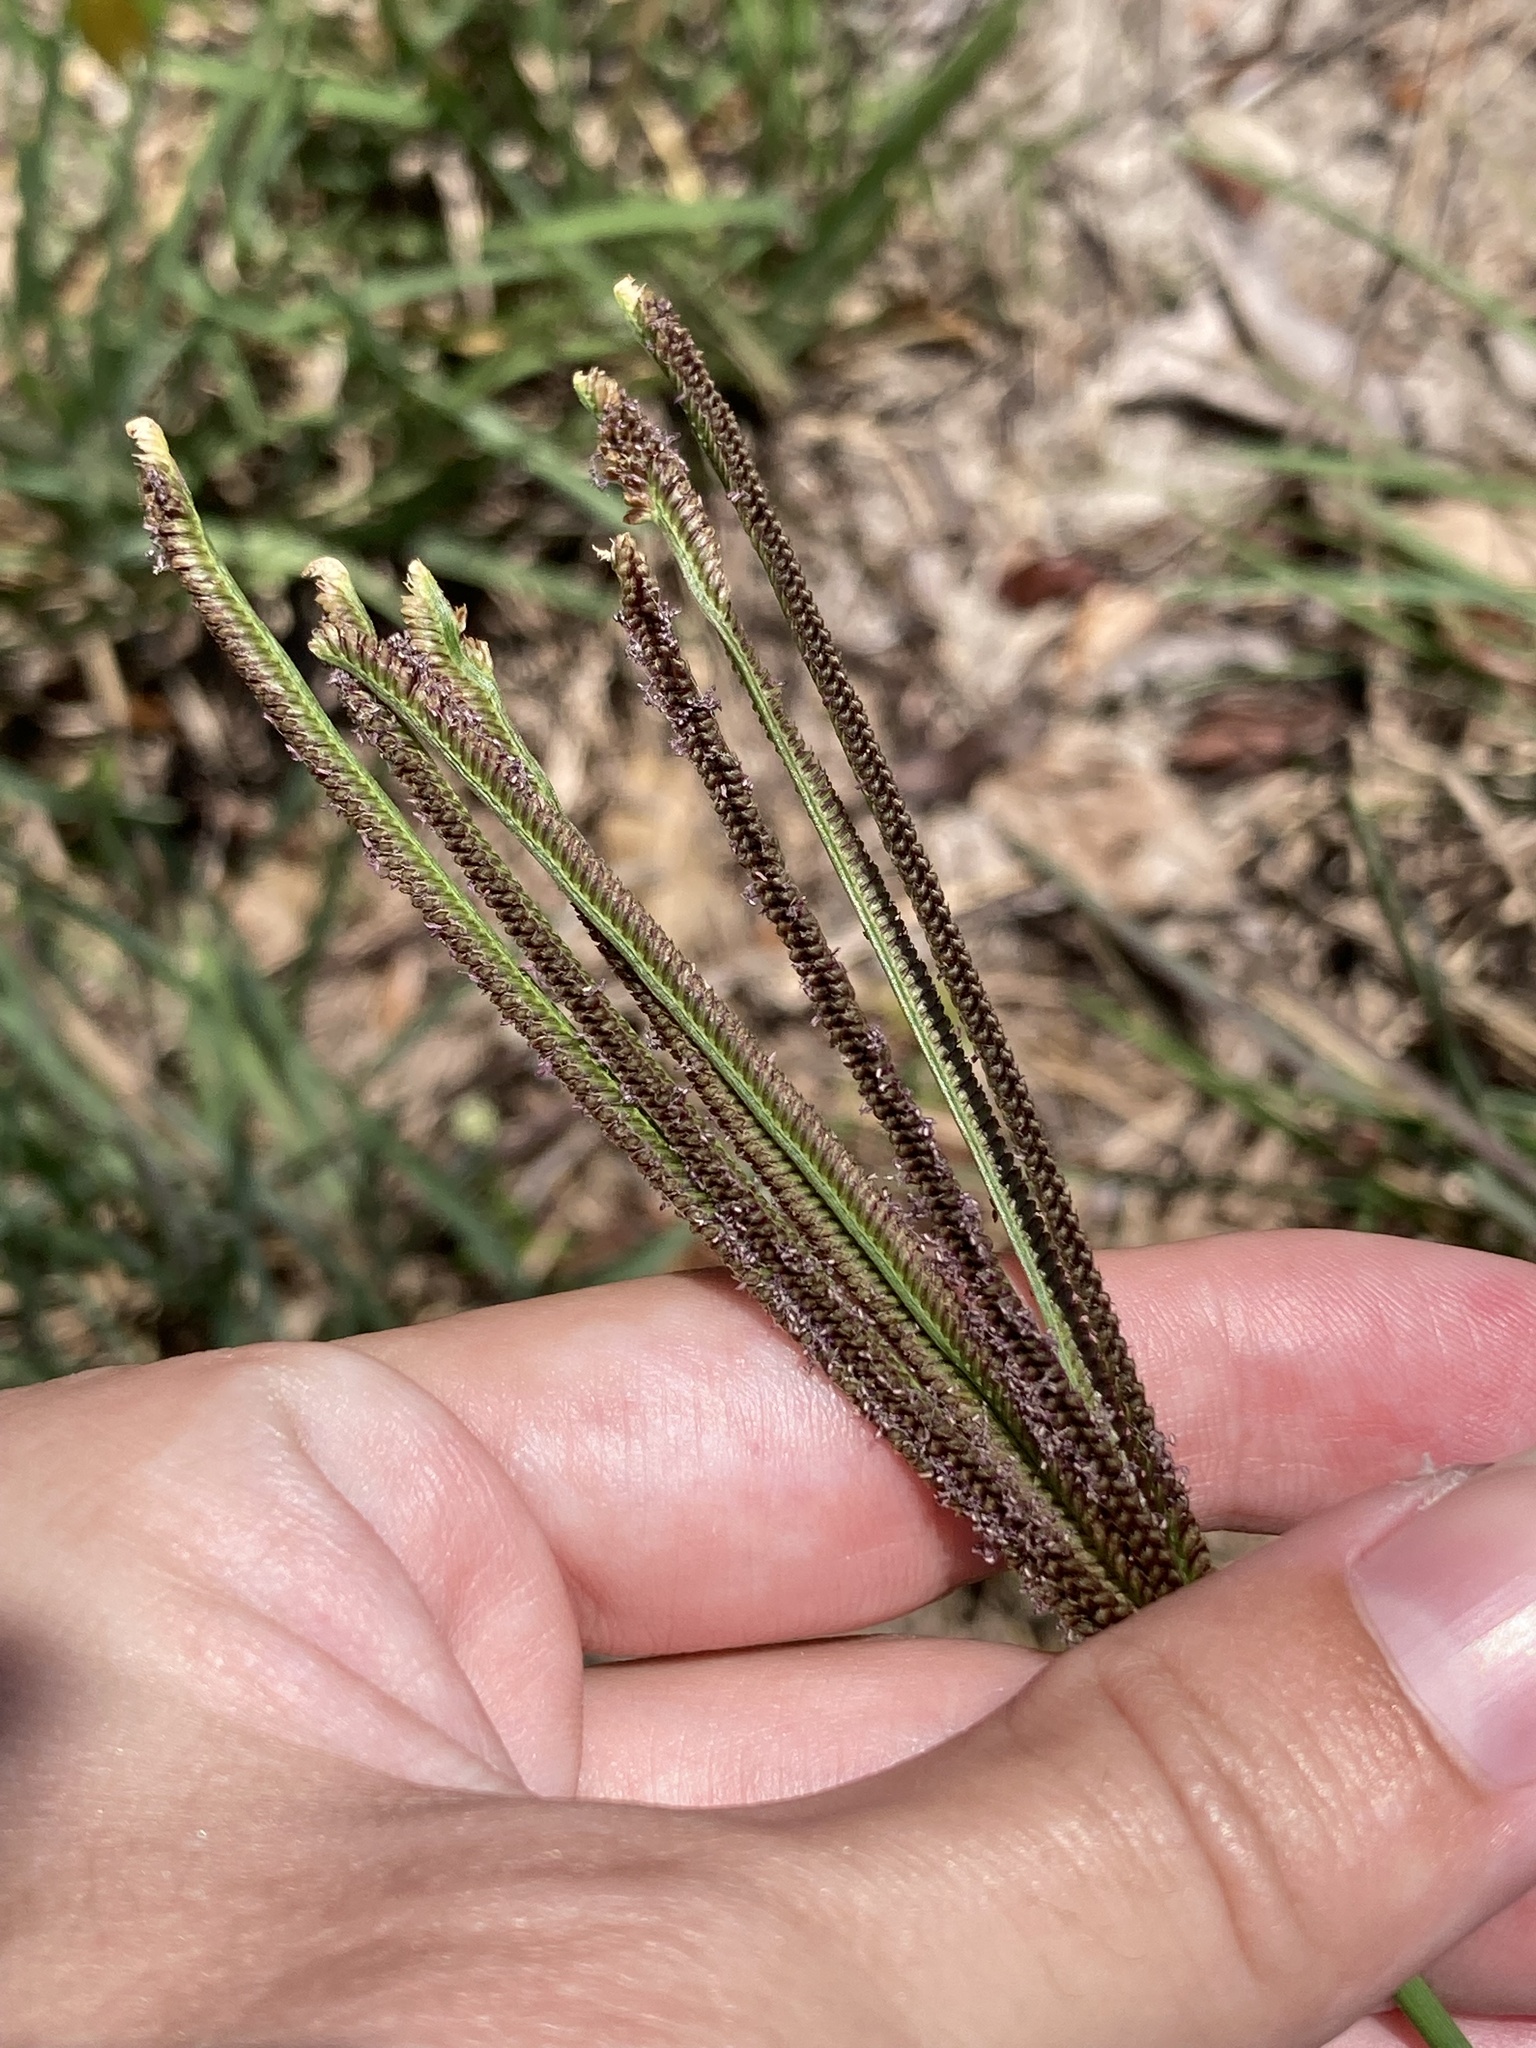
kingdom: Plantae
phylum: Tracheophyta
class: Liliopsida
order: Poales
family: Poaceae
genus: Eustachys
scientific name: Eustachys petraea
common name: Pinewoods fingergrass
